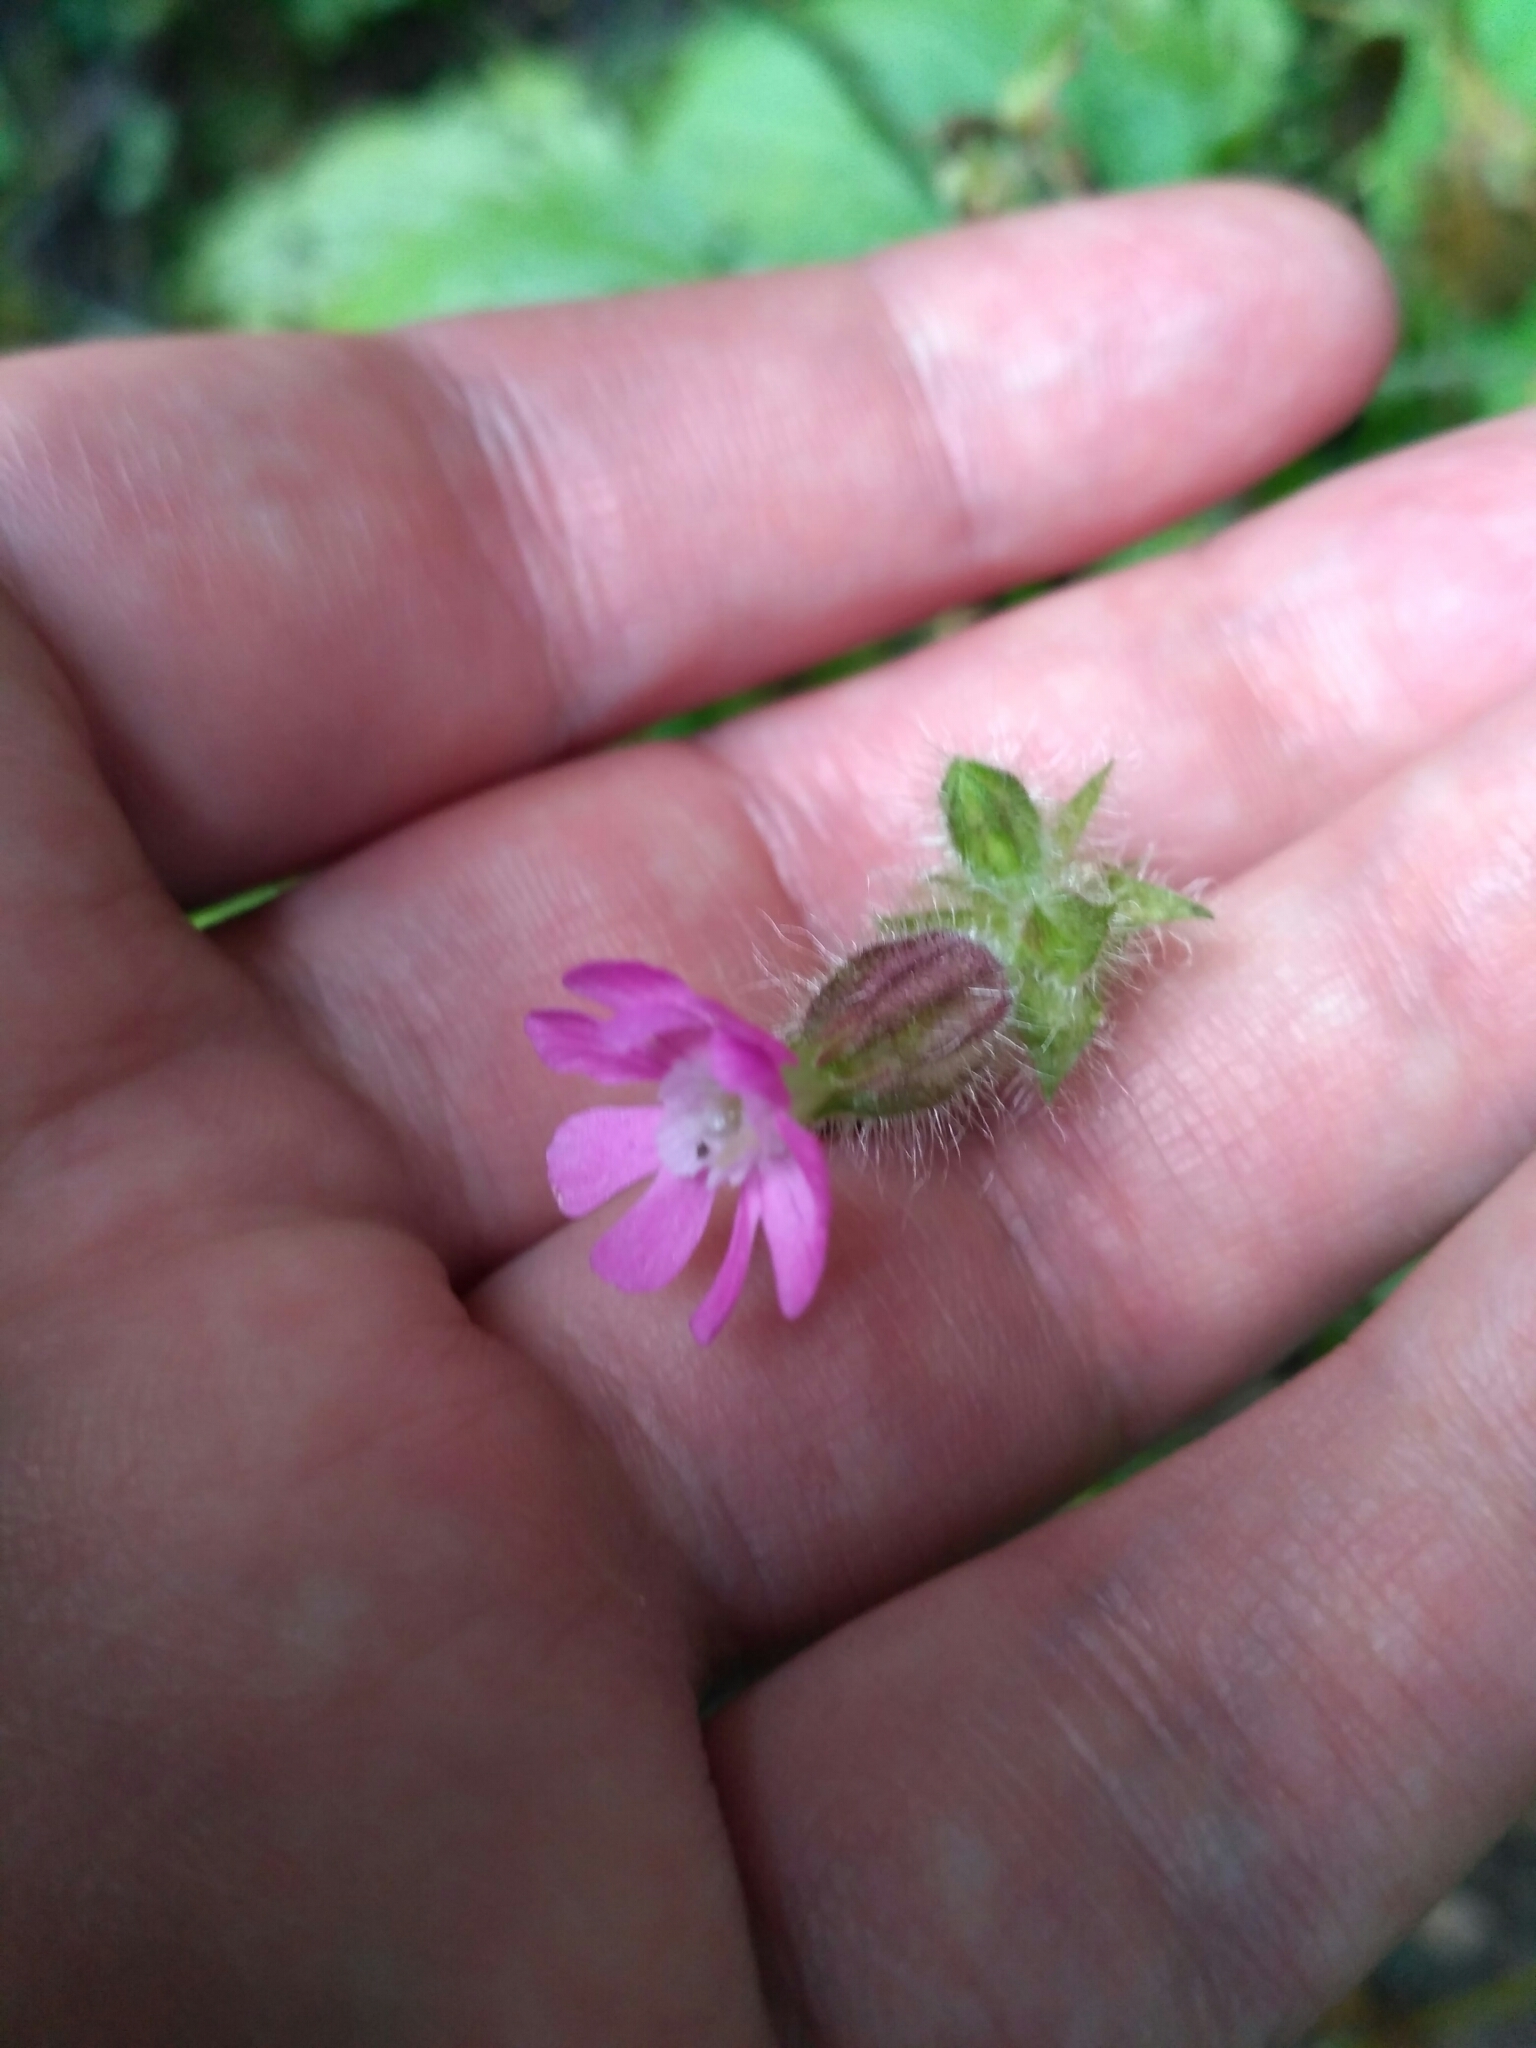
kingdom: Plantae
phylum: Tracheophyta
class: Magnoliopsida
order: Caryophyllales
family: Caryophyllaceae
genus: Silene
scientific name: Silene dioica
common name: Red campion
